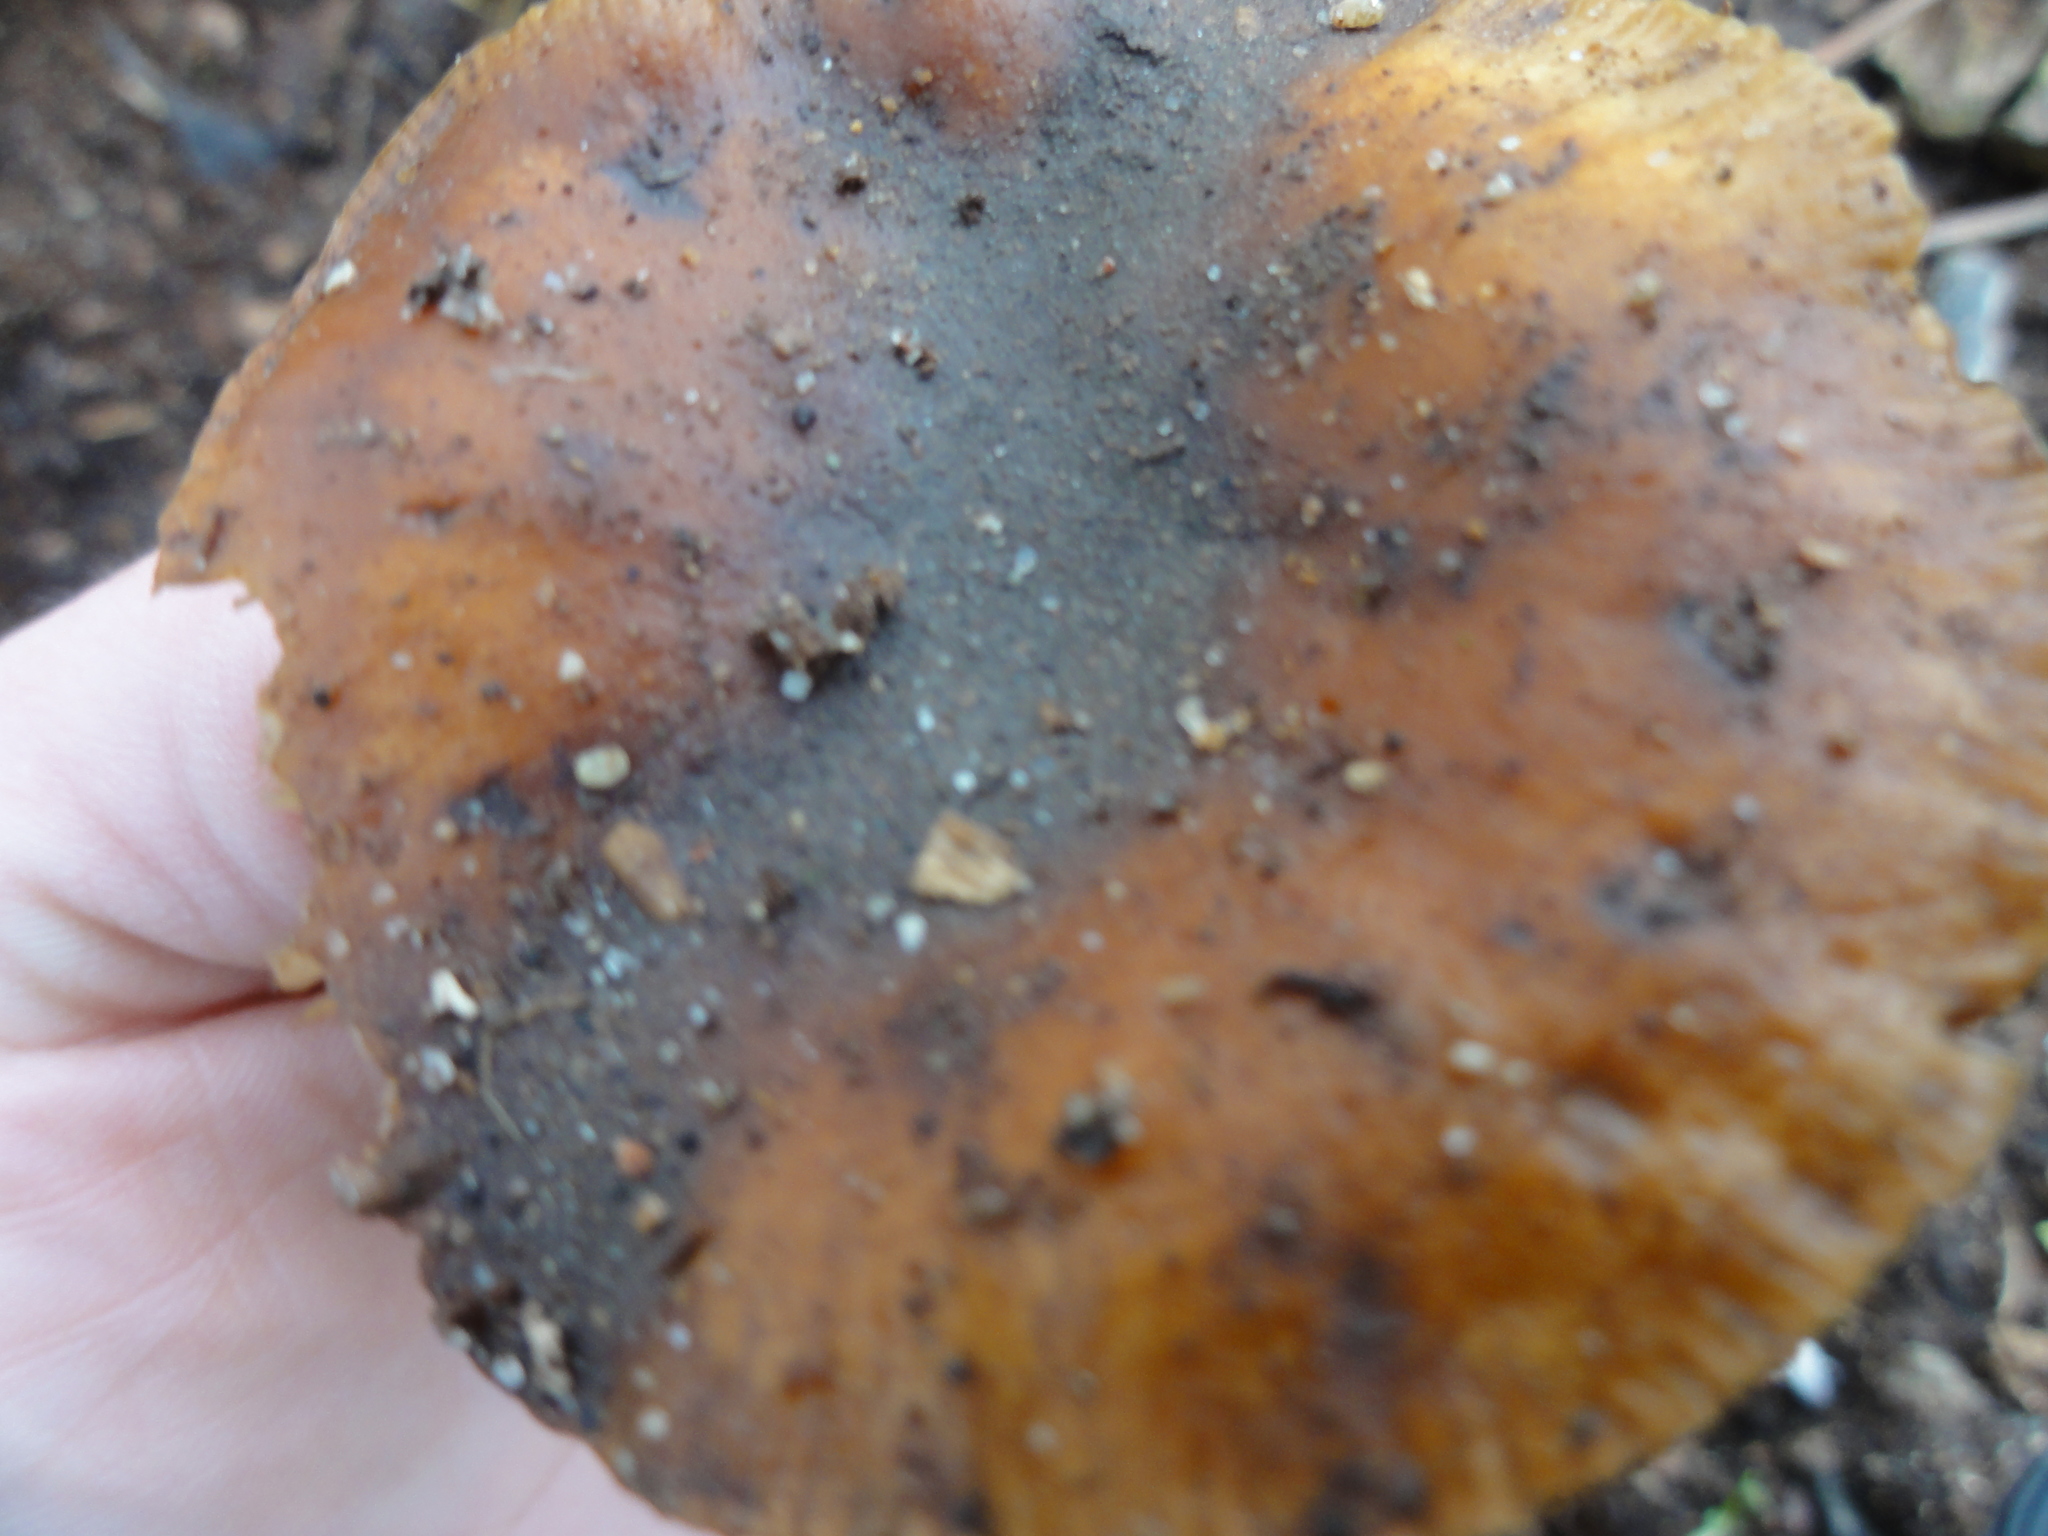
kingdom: Fungi
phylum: Basidiomycota
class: Agaricomycetes
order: Agaricales
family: Physalacriaceae
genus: Flammulina
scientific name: Flammulina
